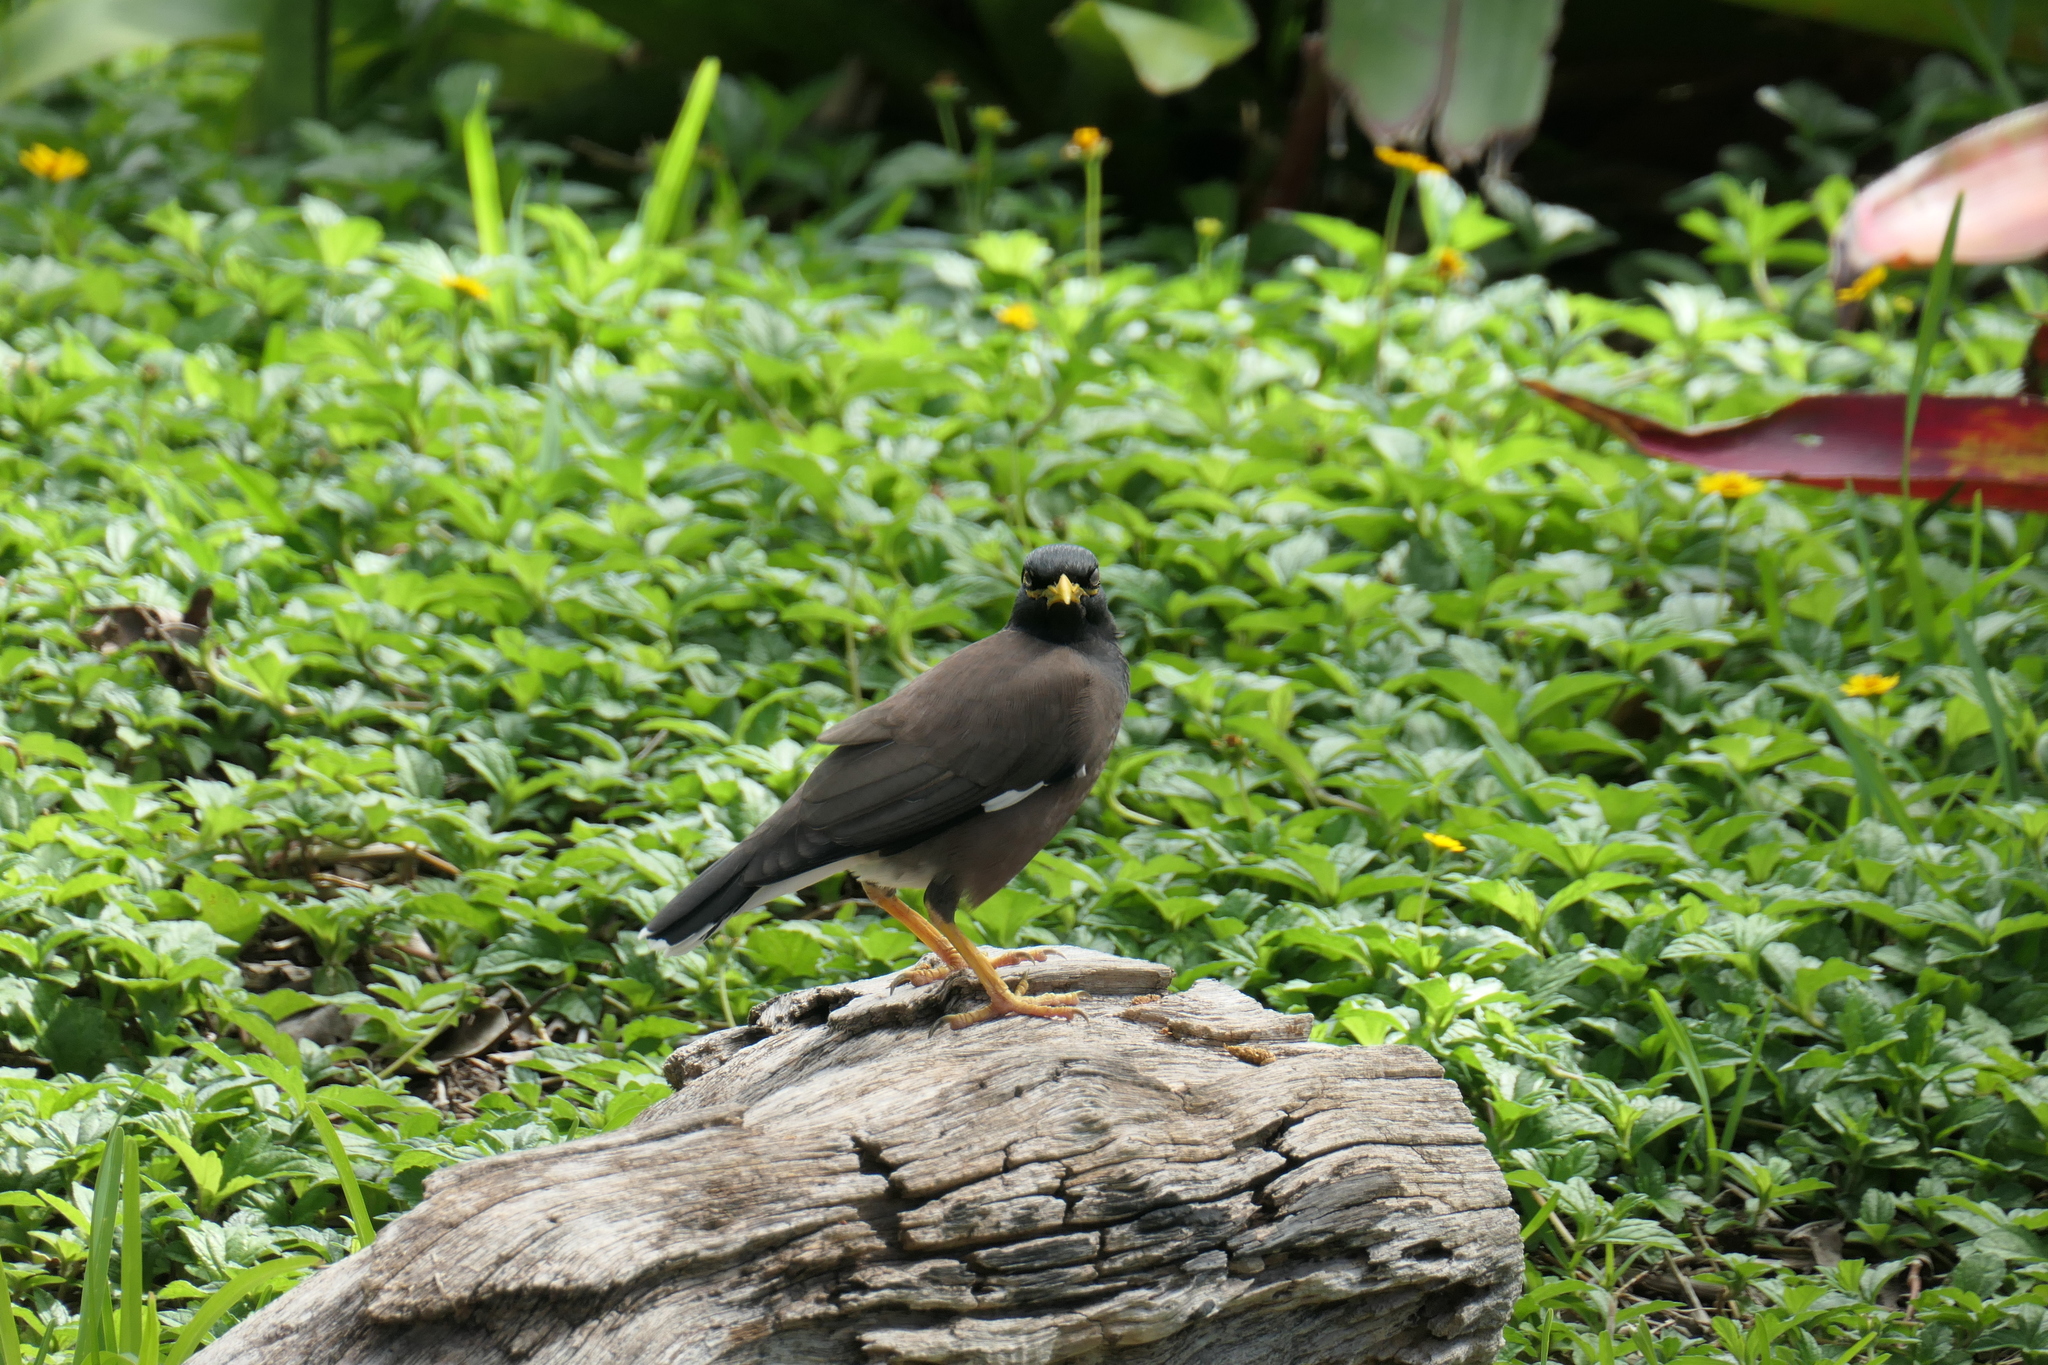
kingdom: Animalia
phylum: Chordata
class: Aves
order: Passeriformes
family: Sturnidae
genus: Acridotheres
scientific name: Acridotheres tristis
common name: Common myna
